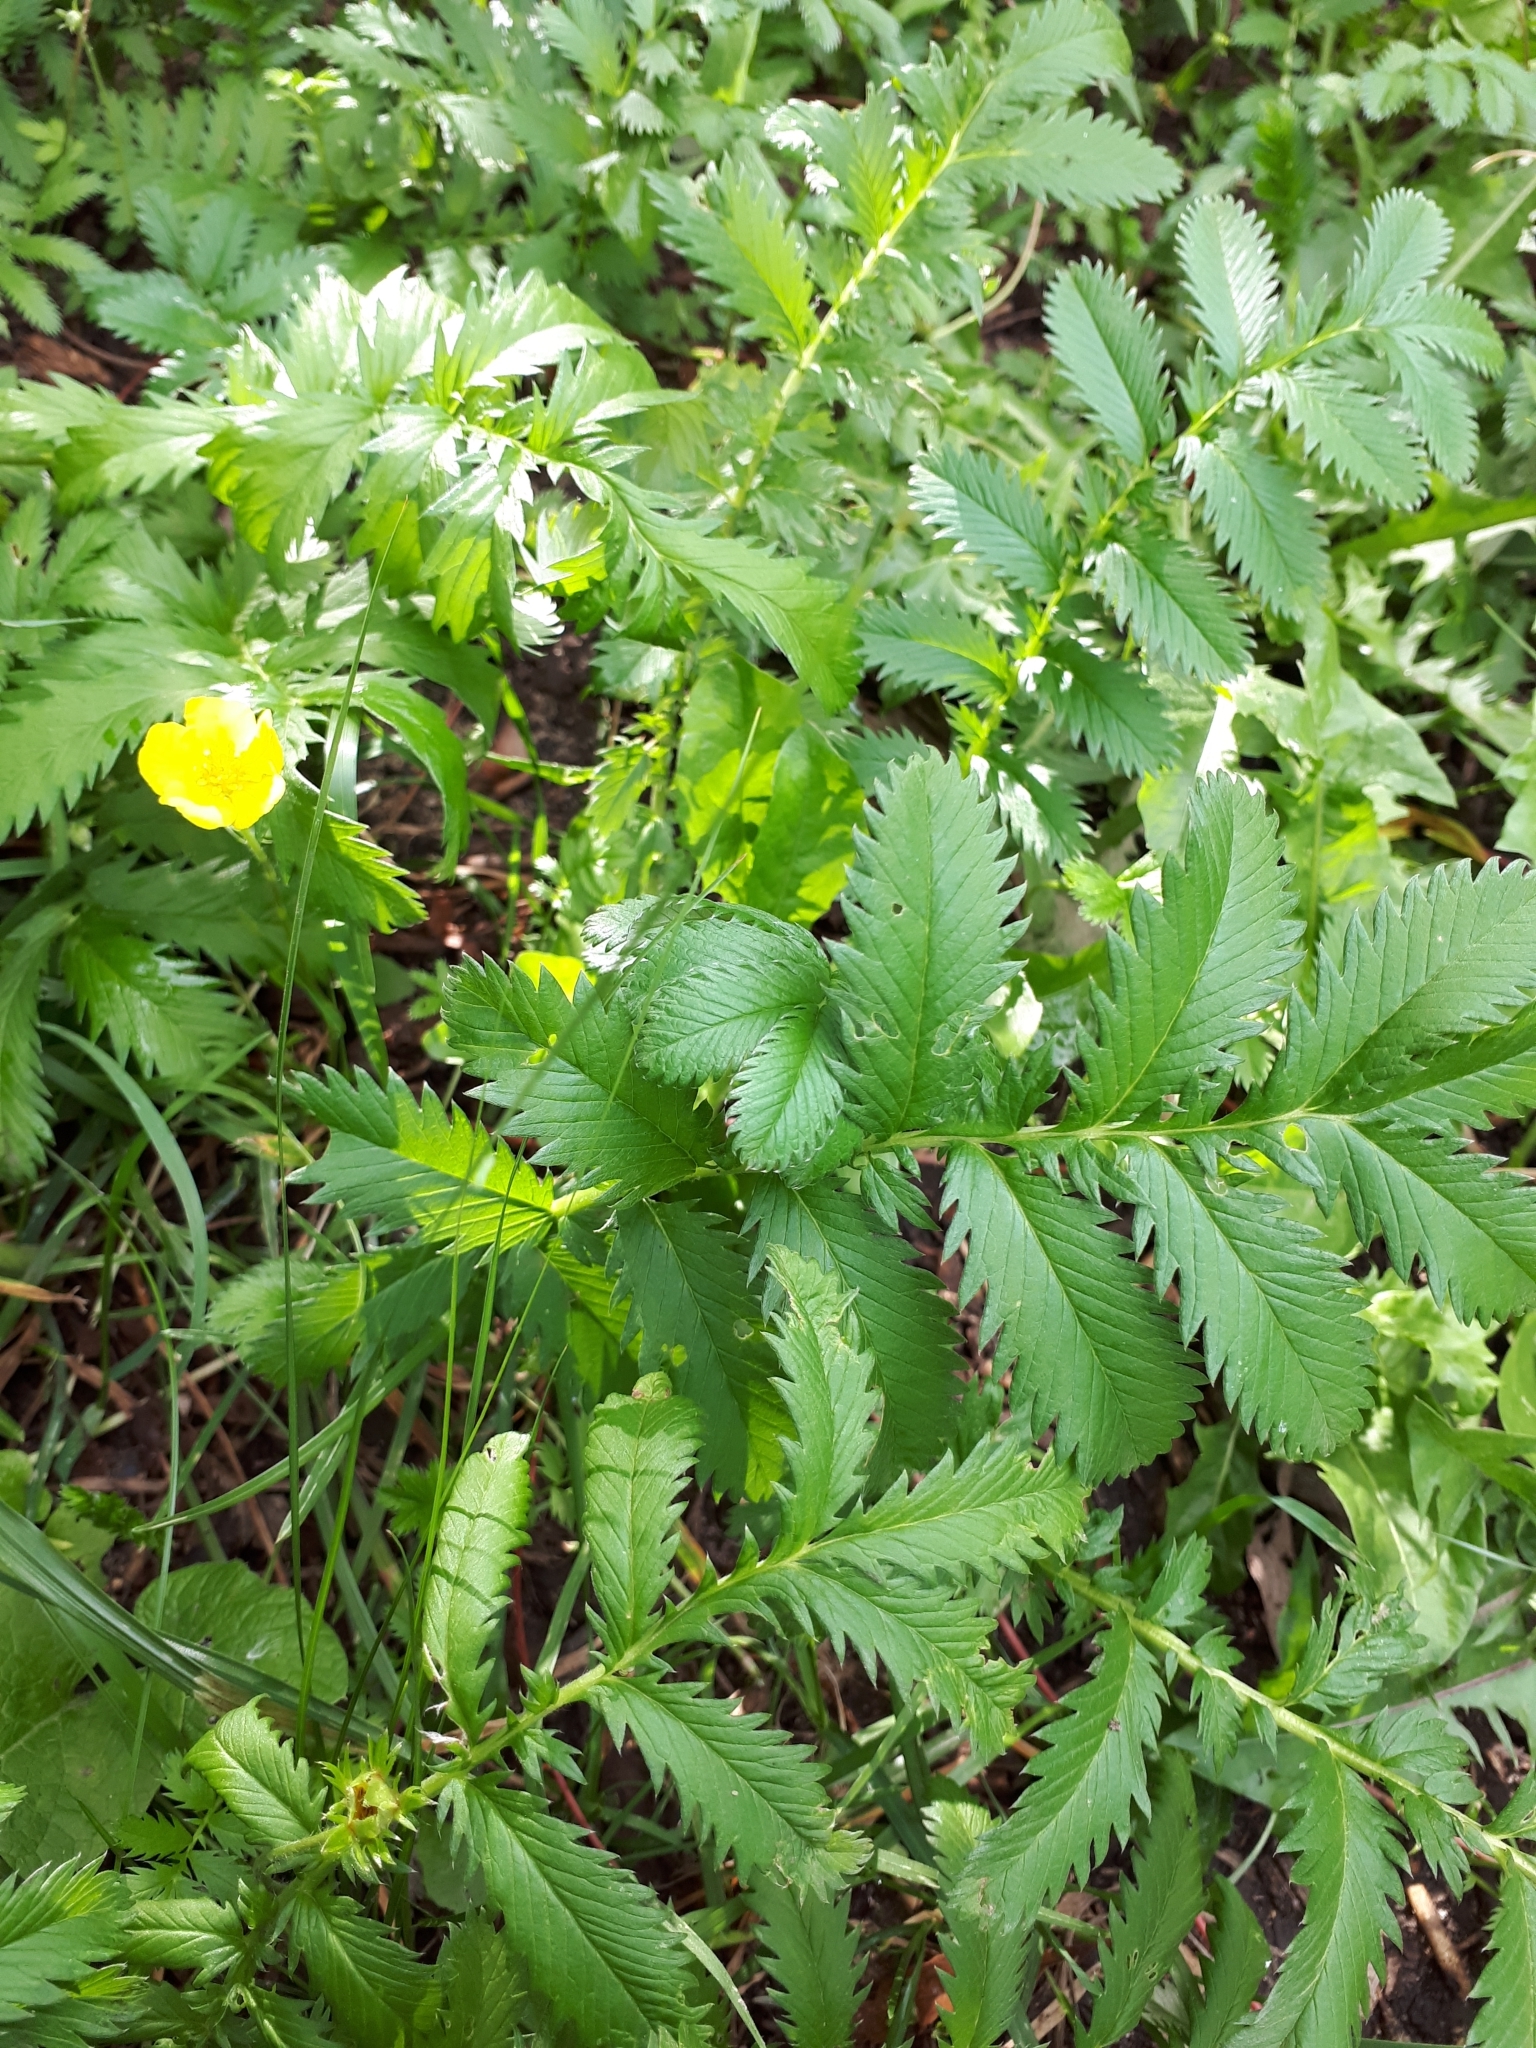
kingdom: Plantae
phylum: Tracheophyta
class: Magnoliopsida
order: Rosales
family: Rosaceae
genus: Argentina
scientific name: Argentina anserina
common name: Common silverweed
